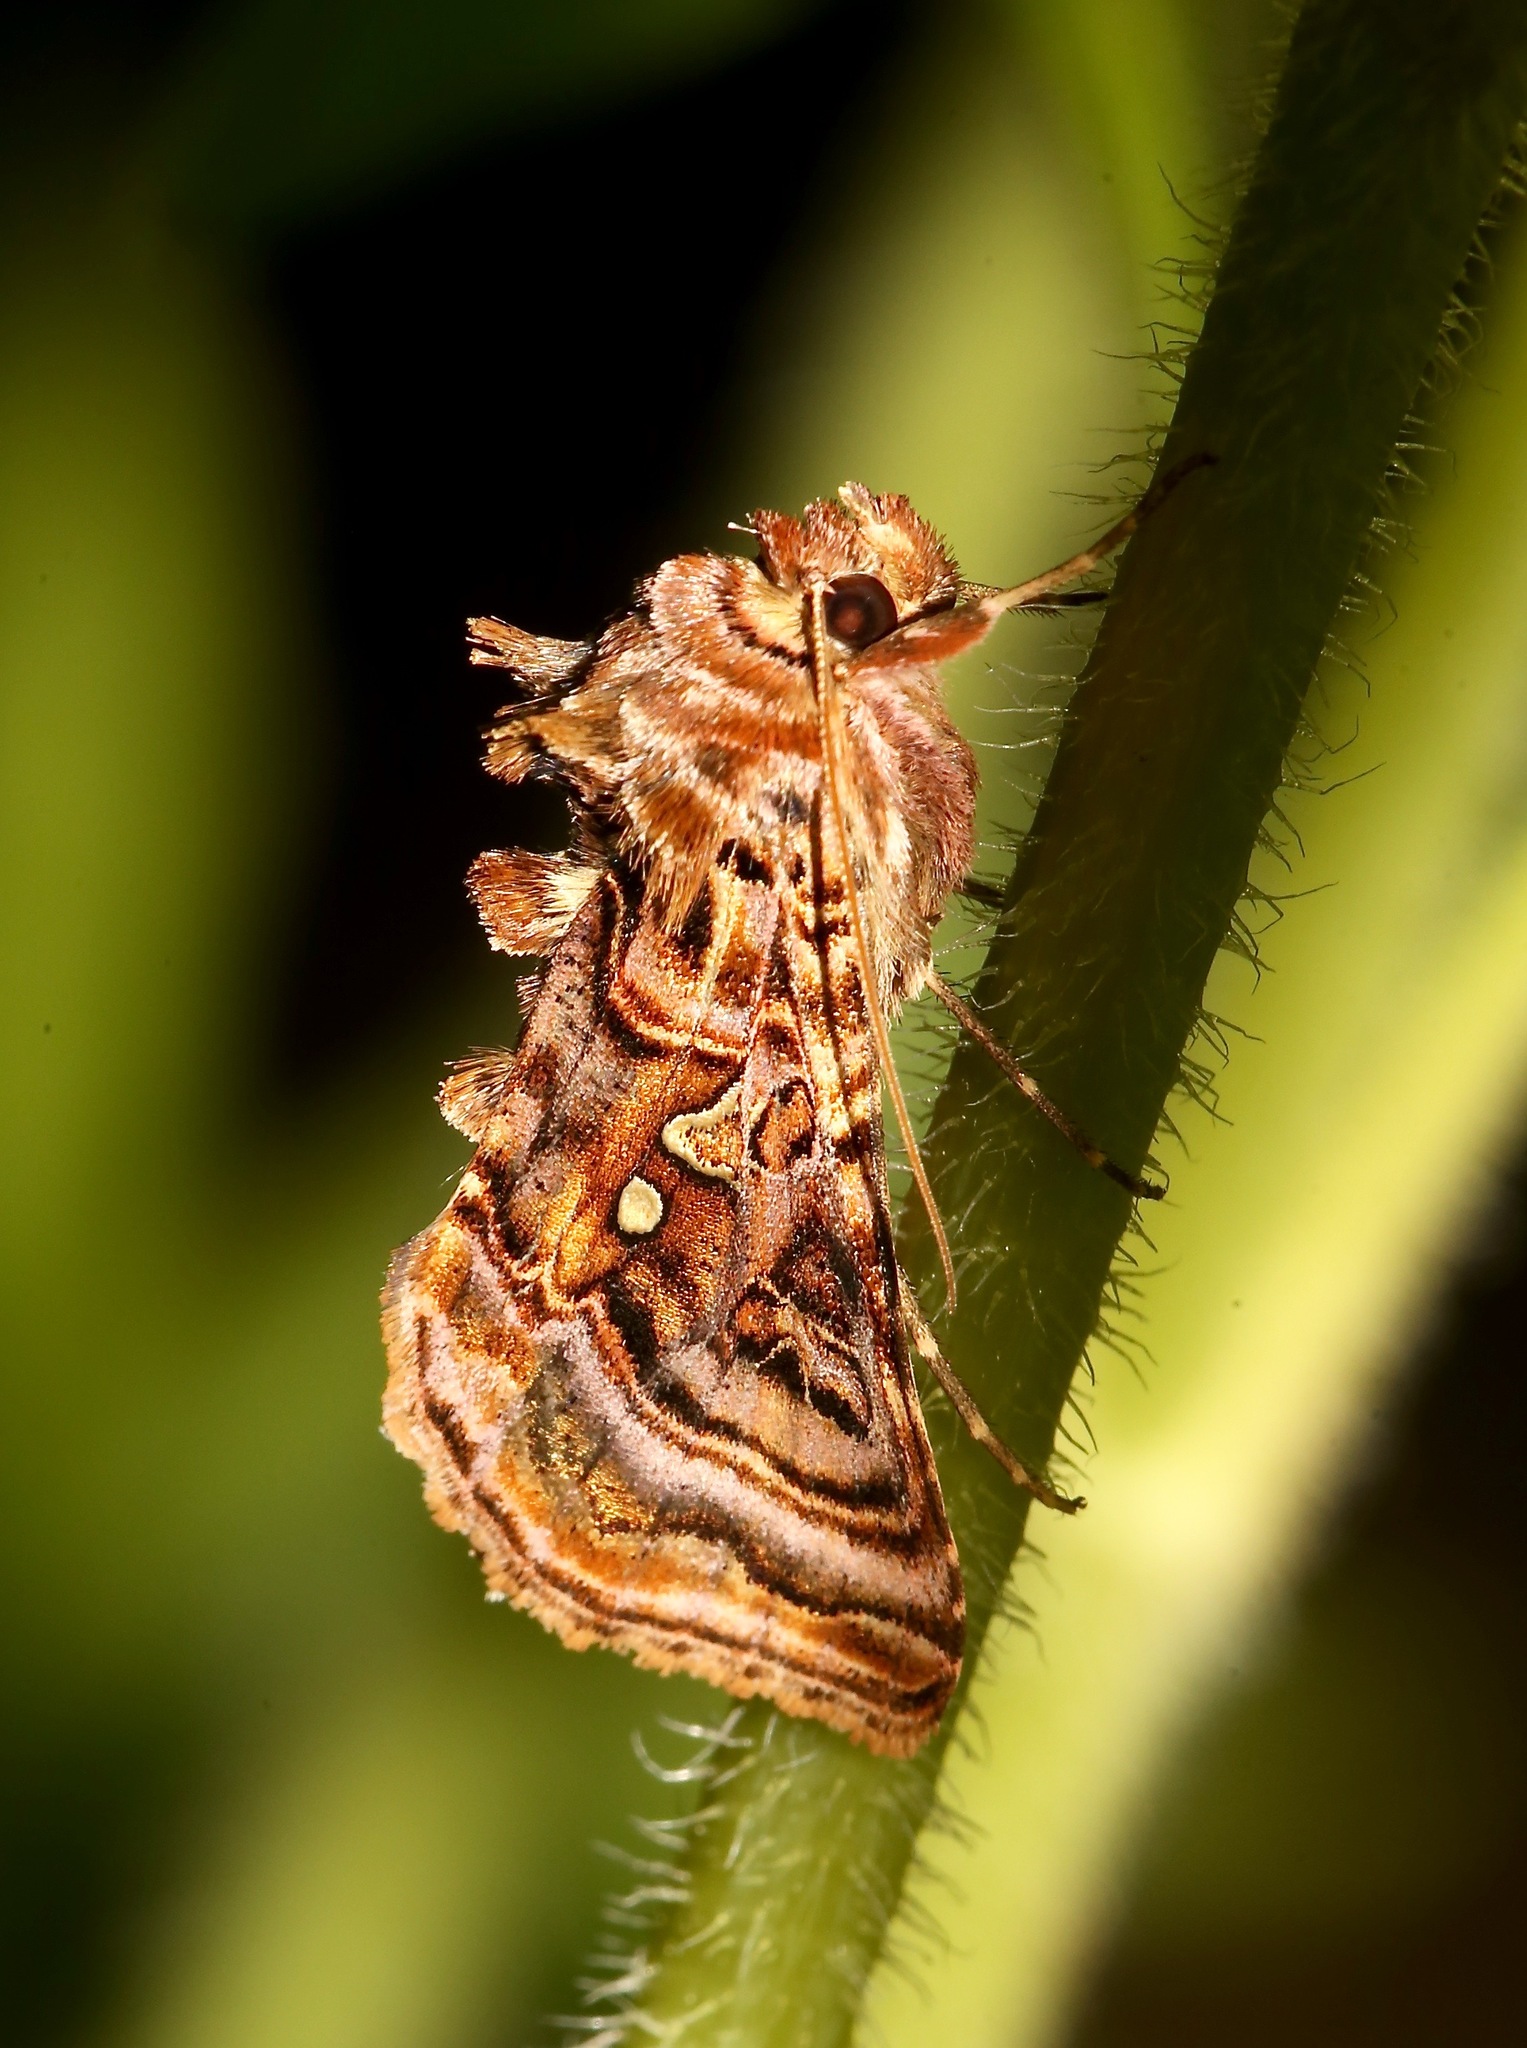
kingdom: Animalia
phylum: Arthropoda
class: Insecta
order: Lepidoptera
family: Noctuidae
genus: Autographa
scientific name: Autographa mappa
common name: Wavy chestnut y moth
